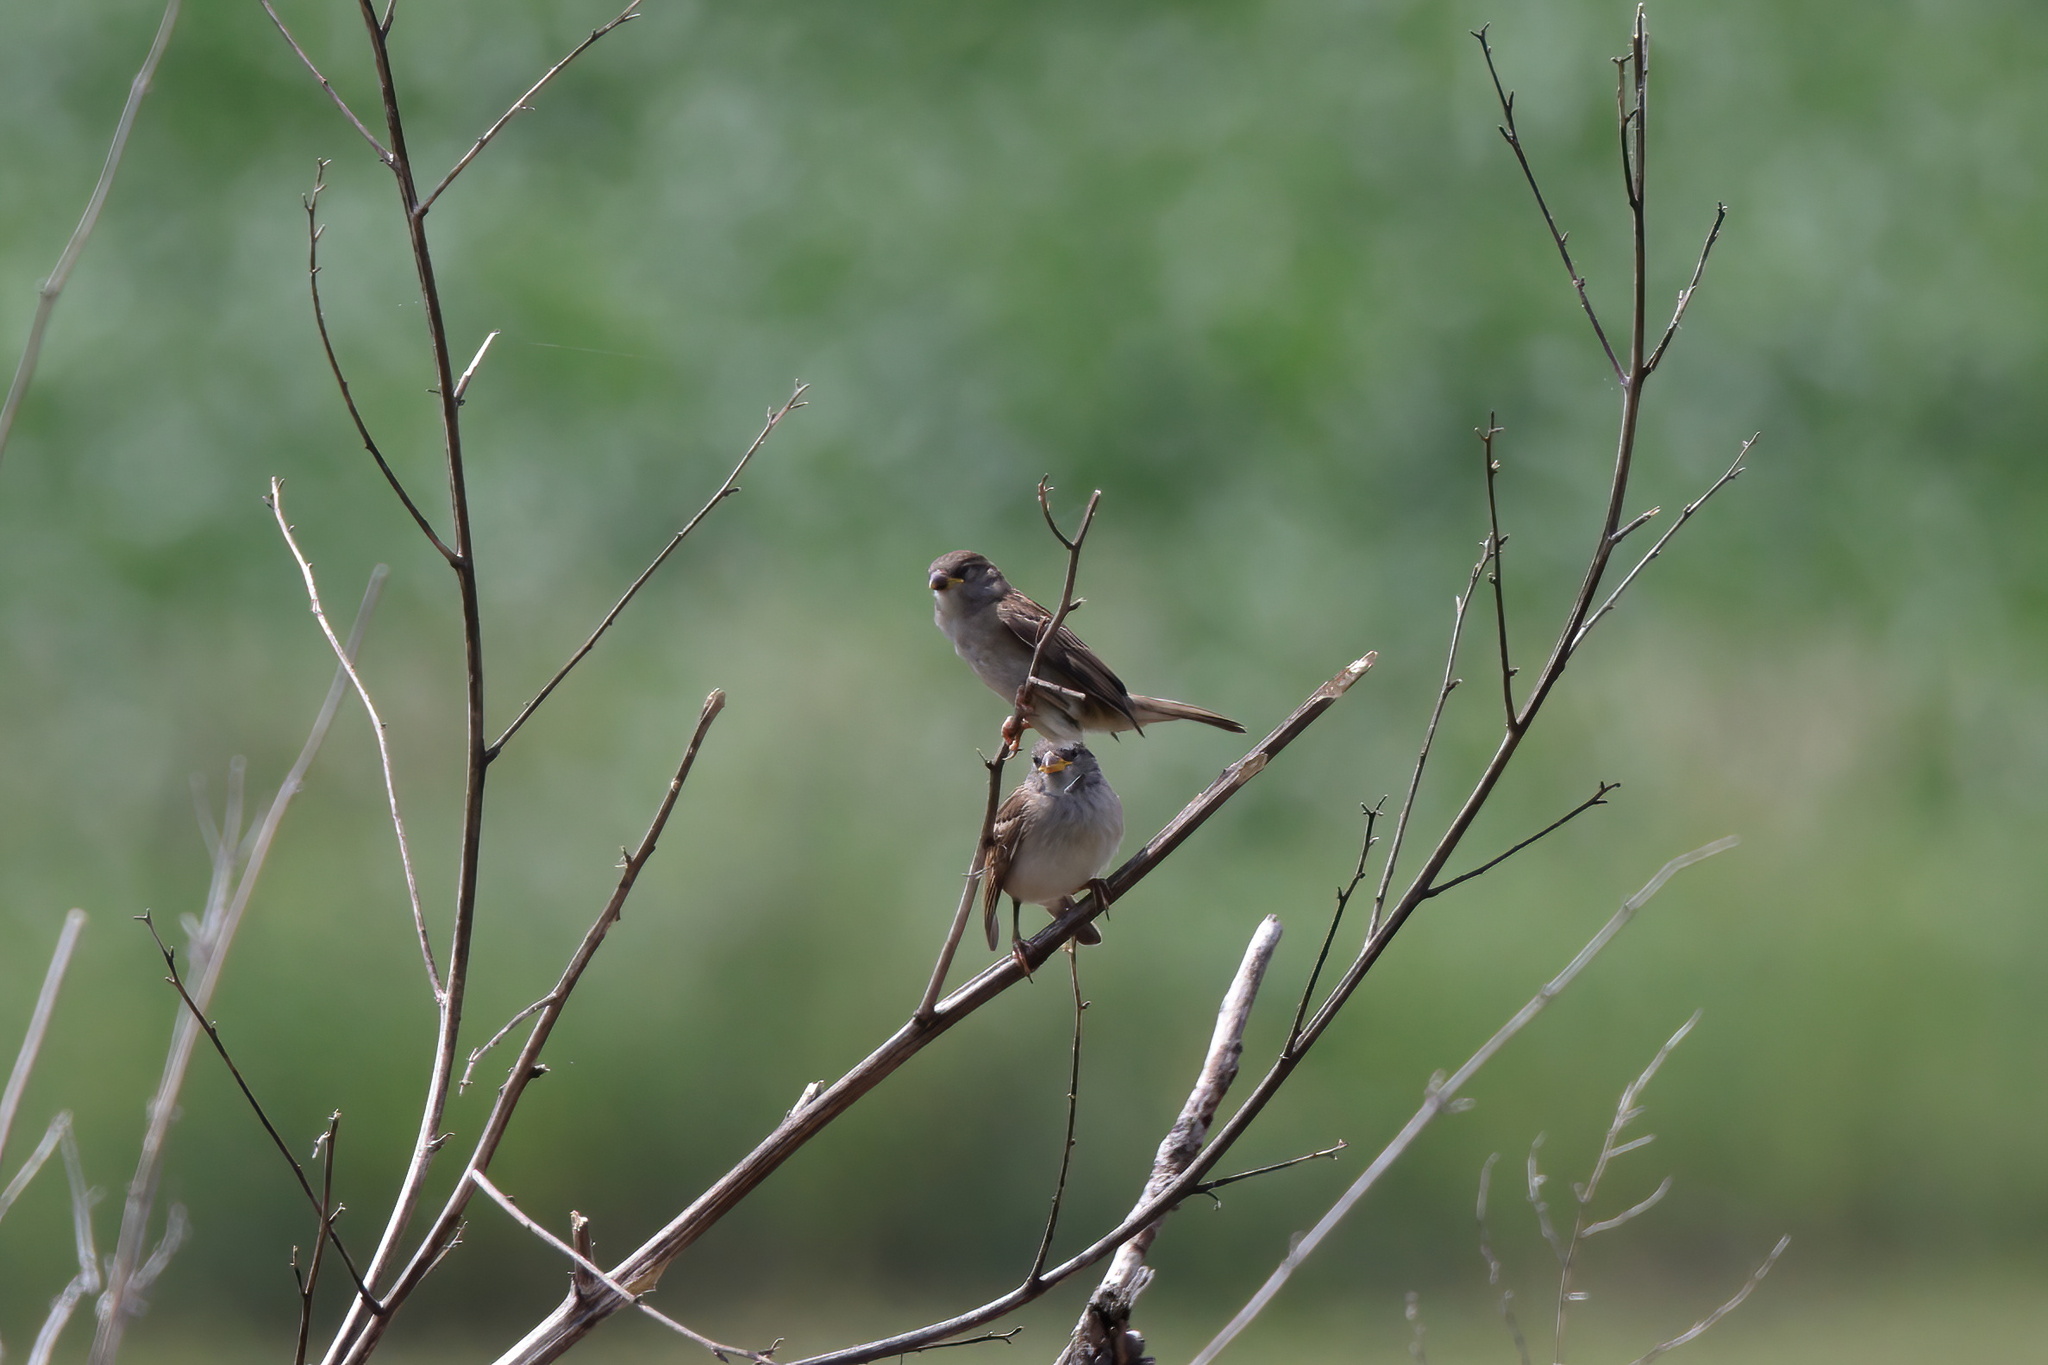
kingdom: Animalia
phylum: Chordata
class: Aves
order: Passeriformes
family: Passerellidae
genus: Spizella
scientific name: Spizella passerina
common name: Chipping sparrow
